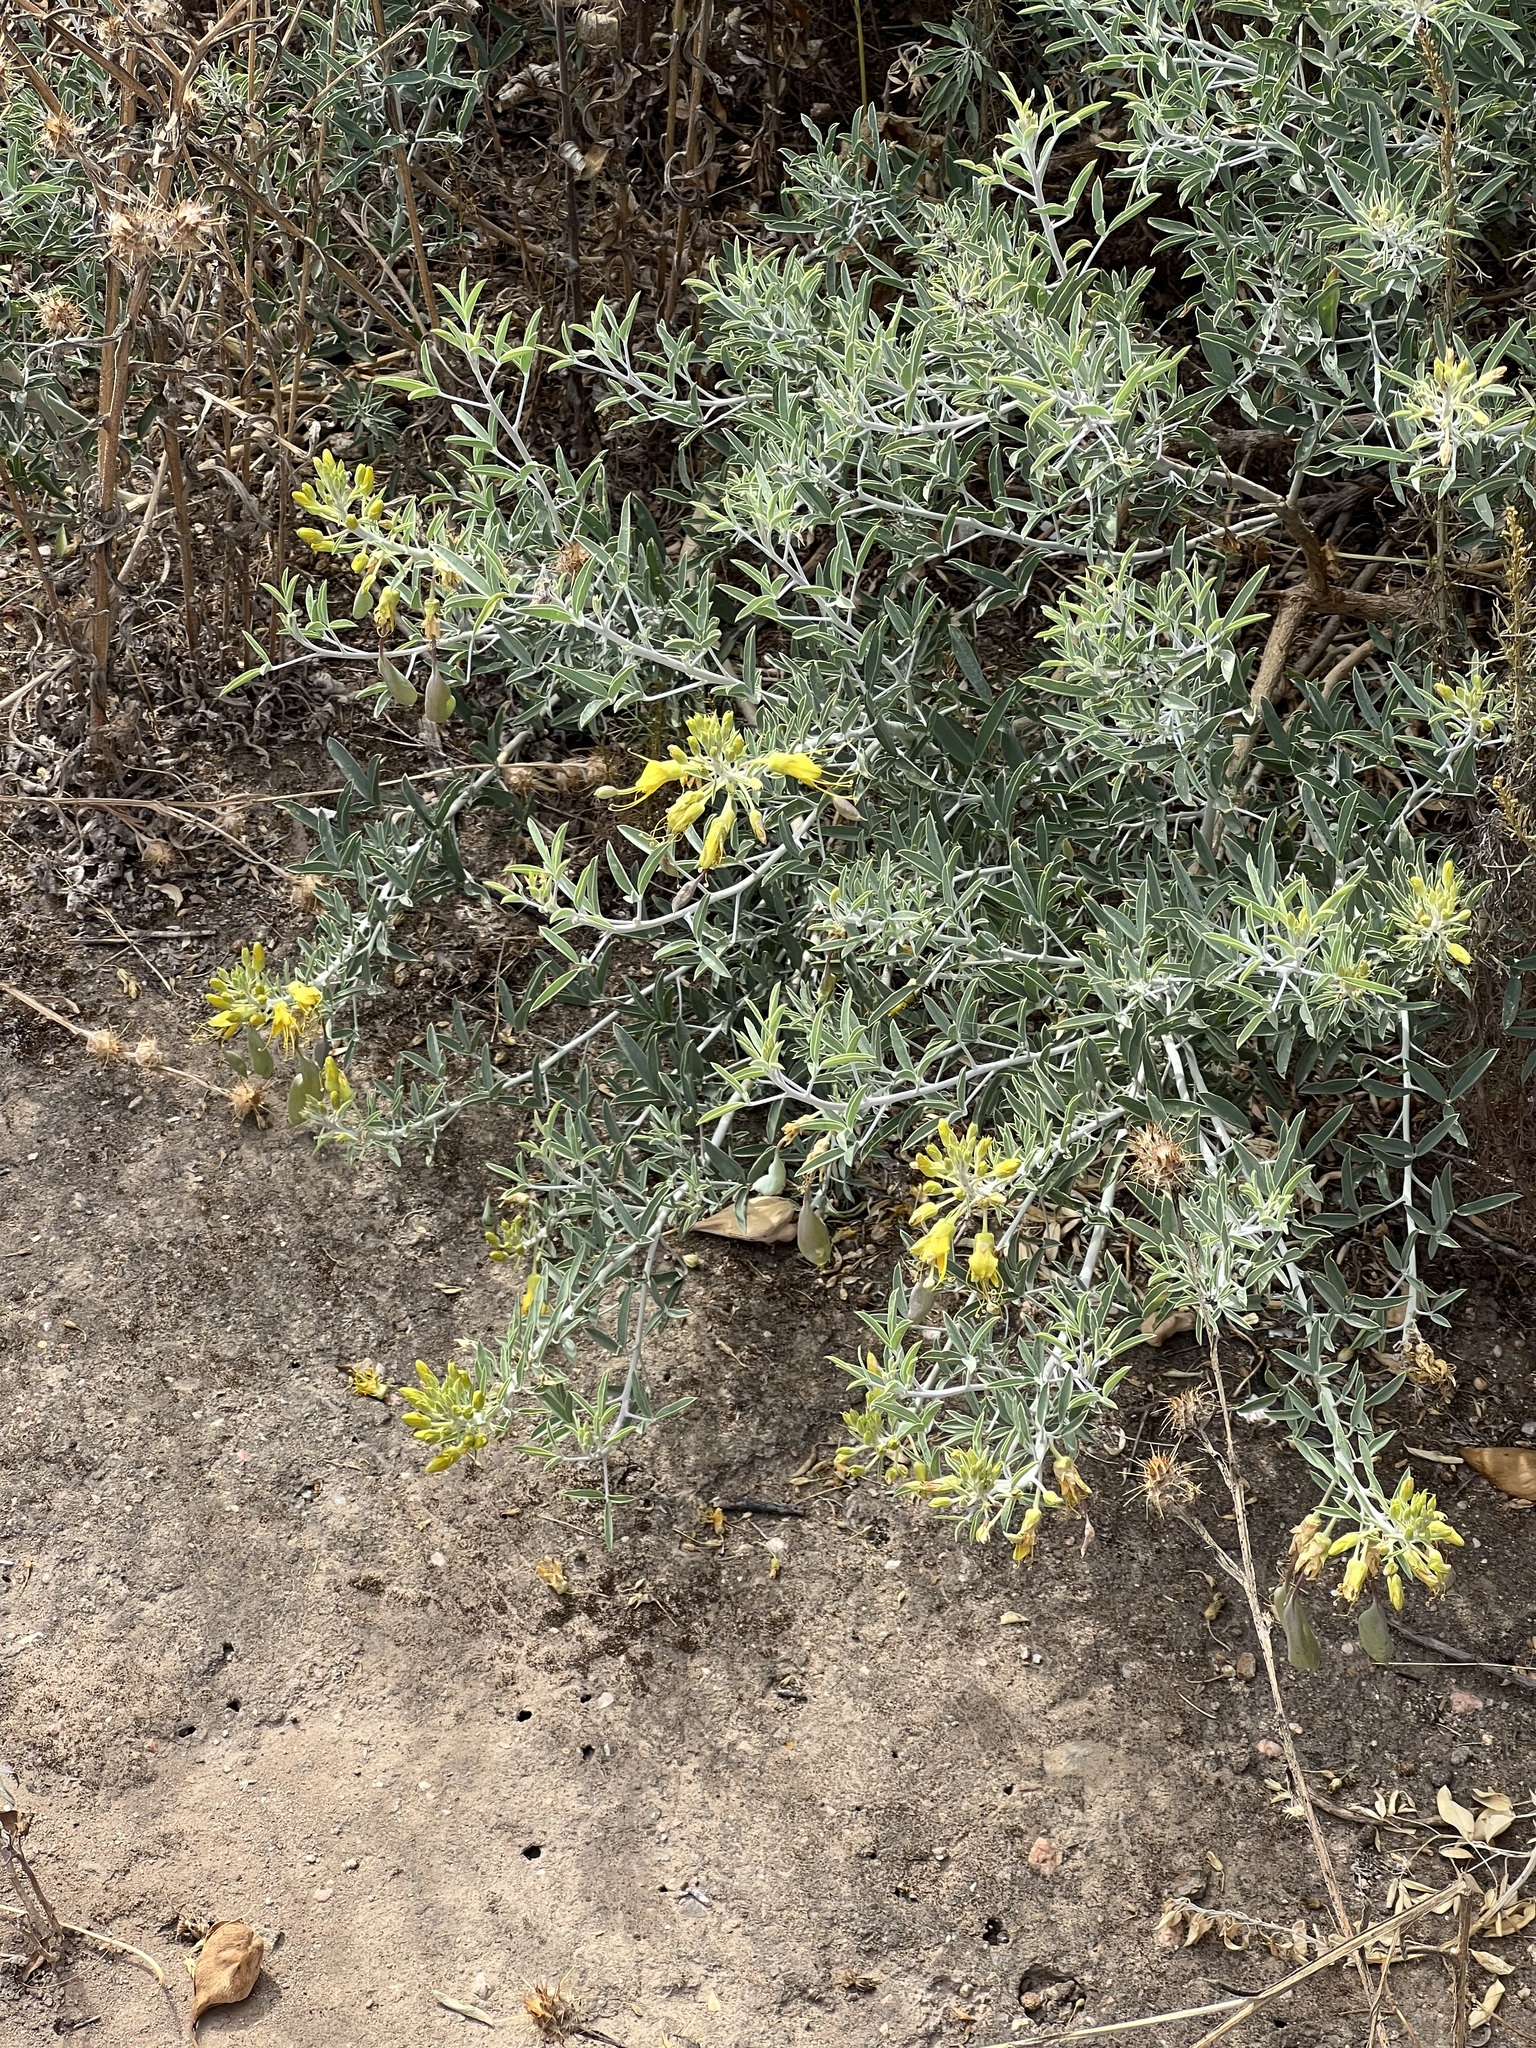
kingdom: Plantae
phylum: Tracheophyta
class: Magnoliopsida
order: Brassicales
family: Cleomaceae
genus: Cleomella
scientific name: Cleomella arborea
